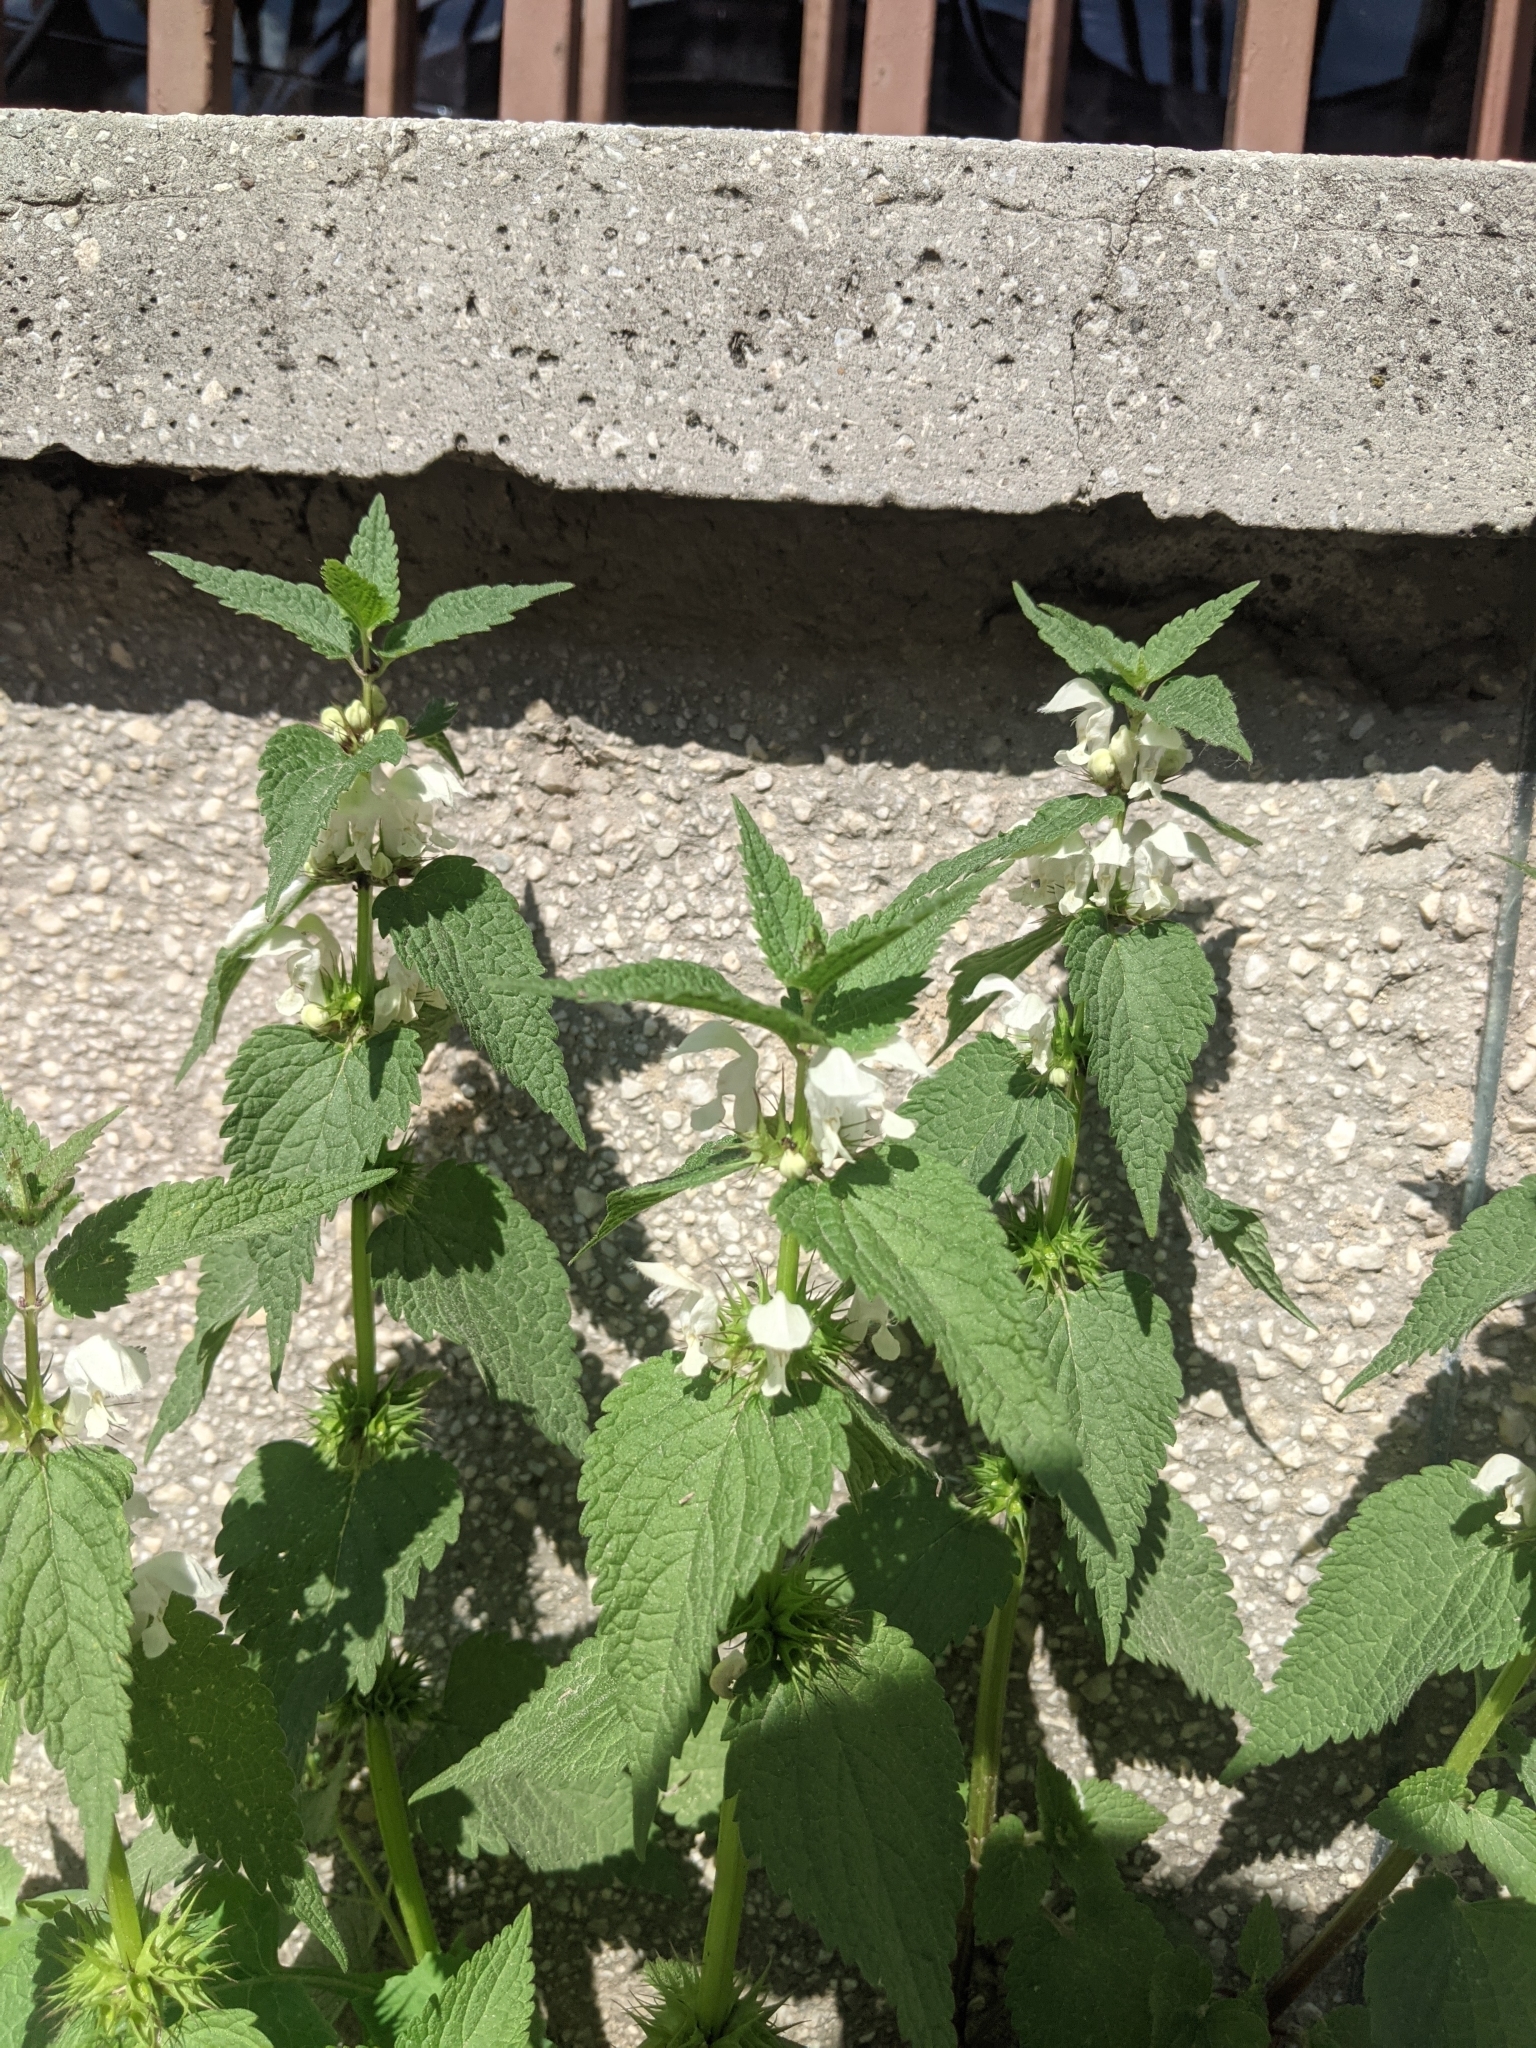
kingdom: Plantae
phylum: Tracheophyta
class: Magnoliopsida
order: Lamiales
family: Lamiaceae
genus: Lamium
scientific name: Lamium album
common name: White dead-nettle
